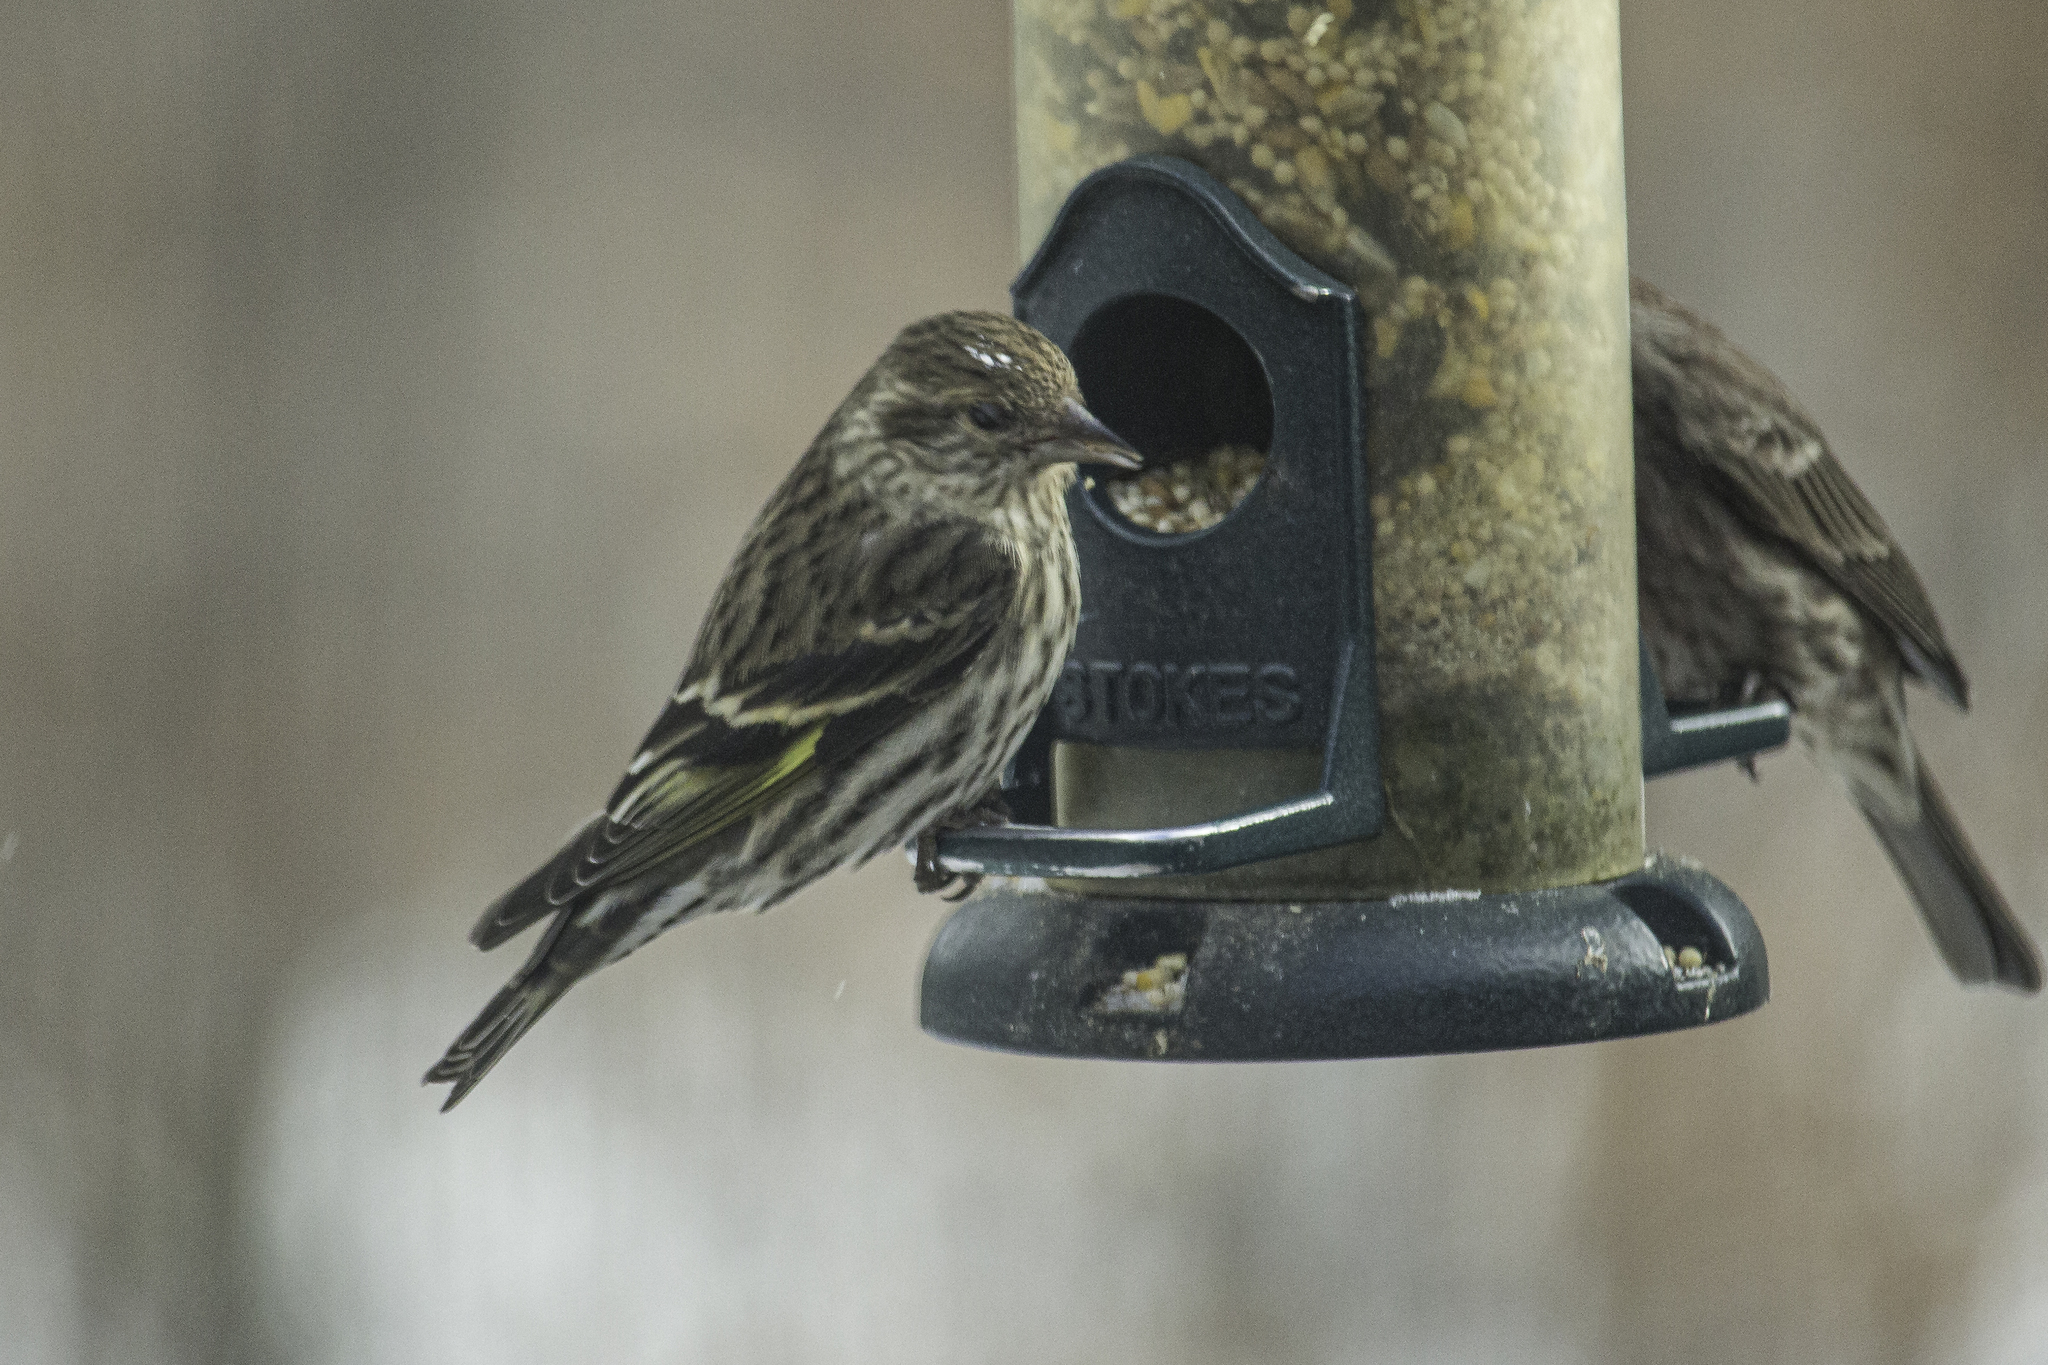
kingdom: Animalia
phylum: Chordata
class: Aves
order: Passeriformes
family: Fringillidae
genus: Spinus
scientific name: Spinus pinus
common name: Pine siskin
